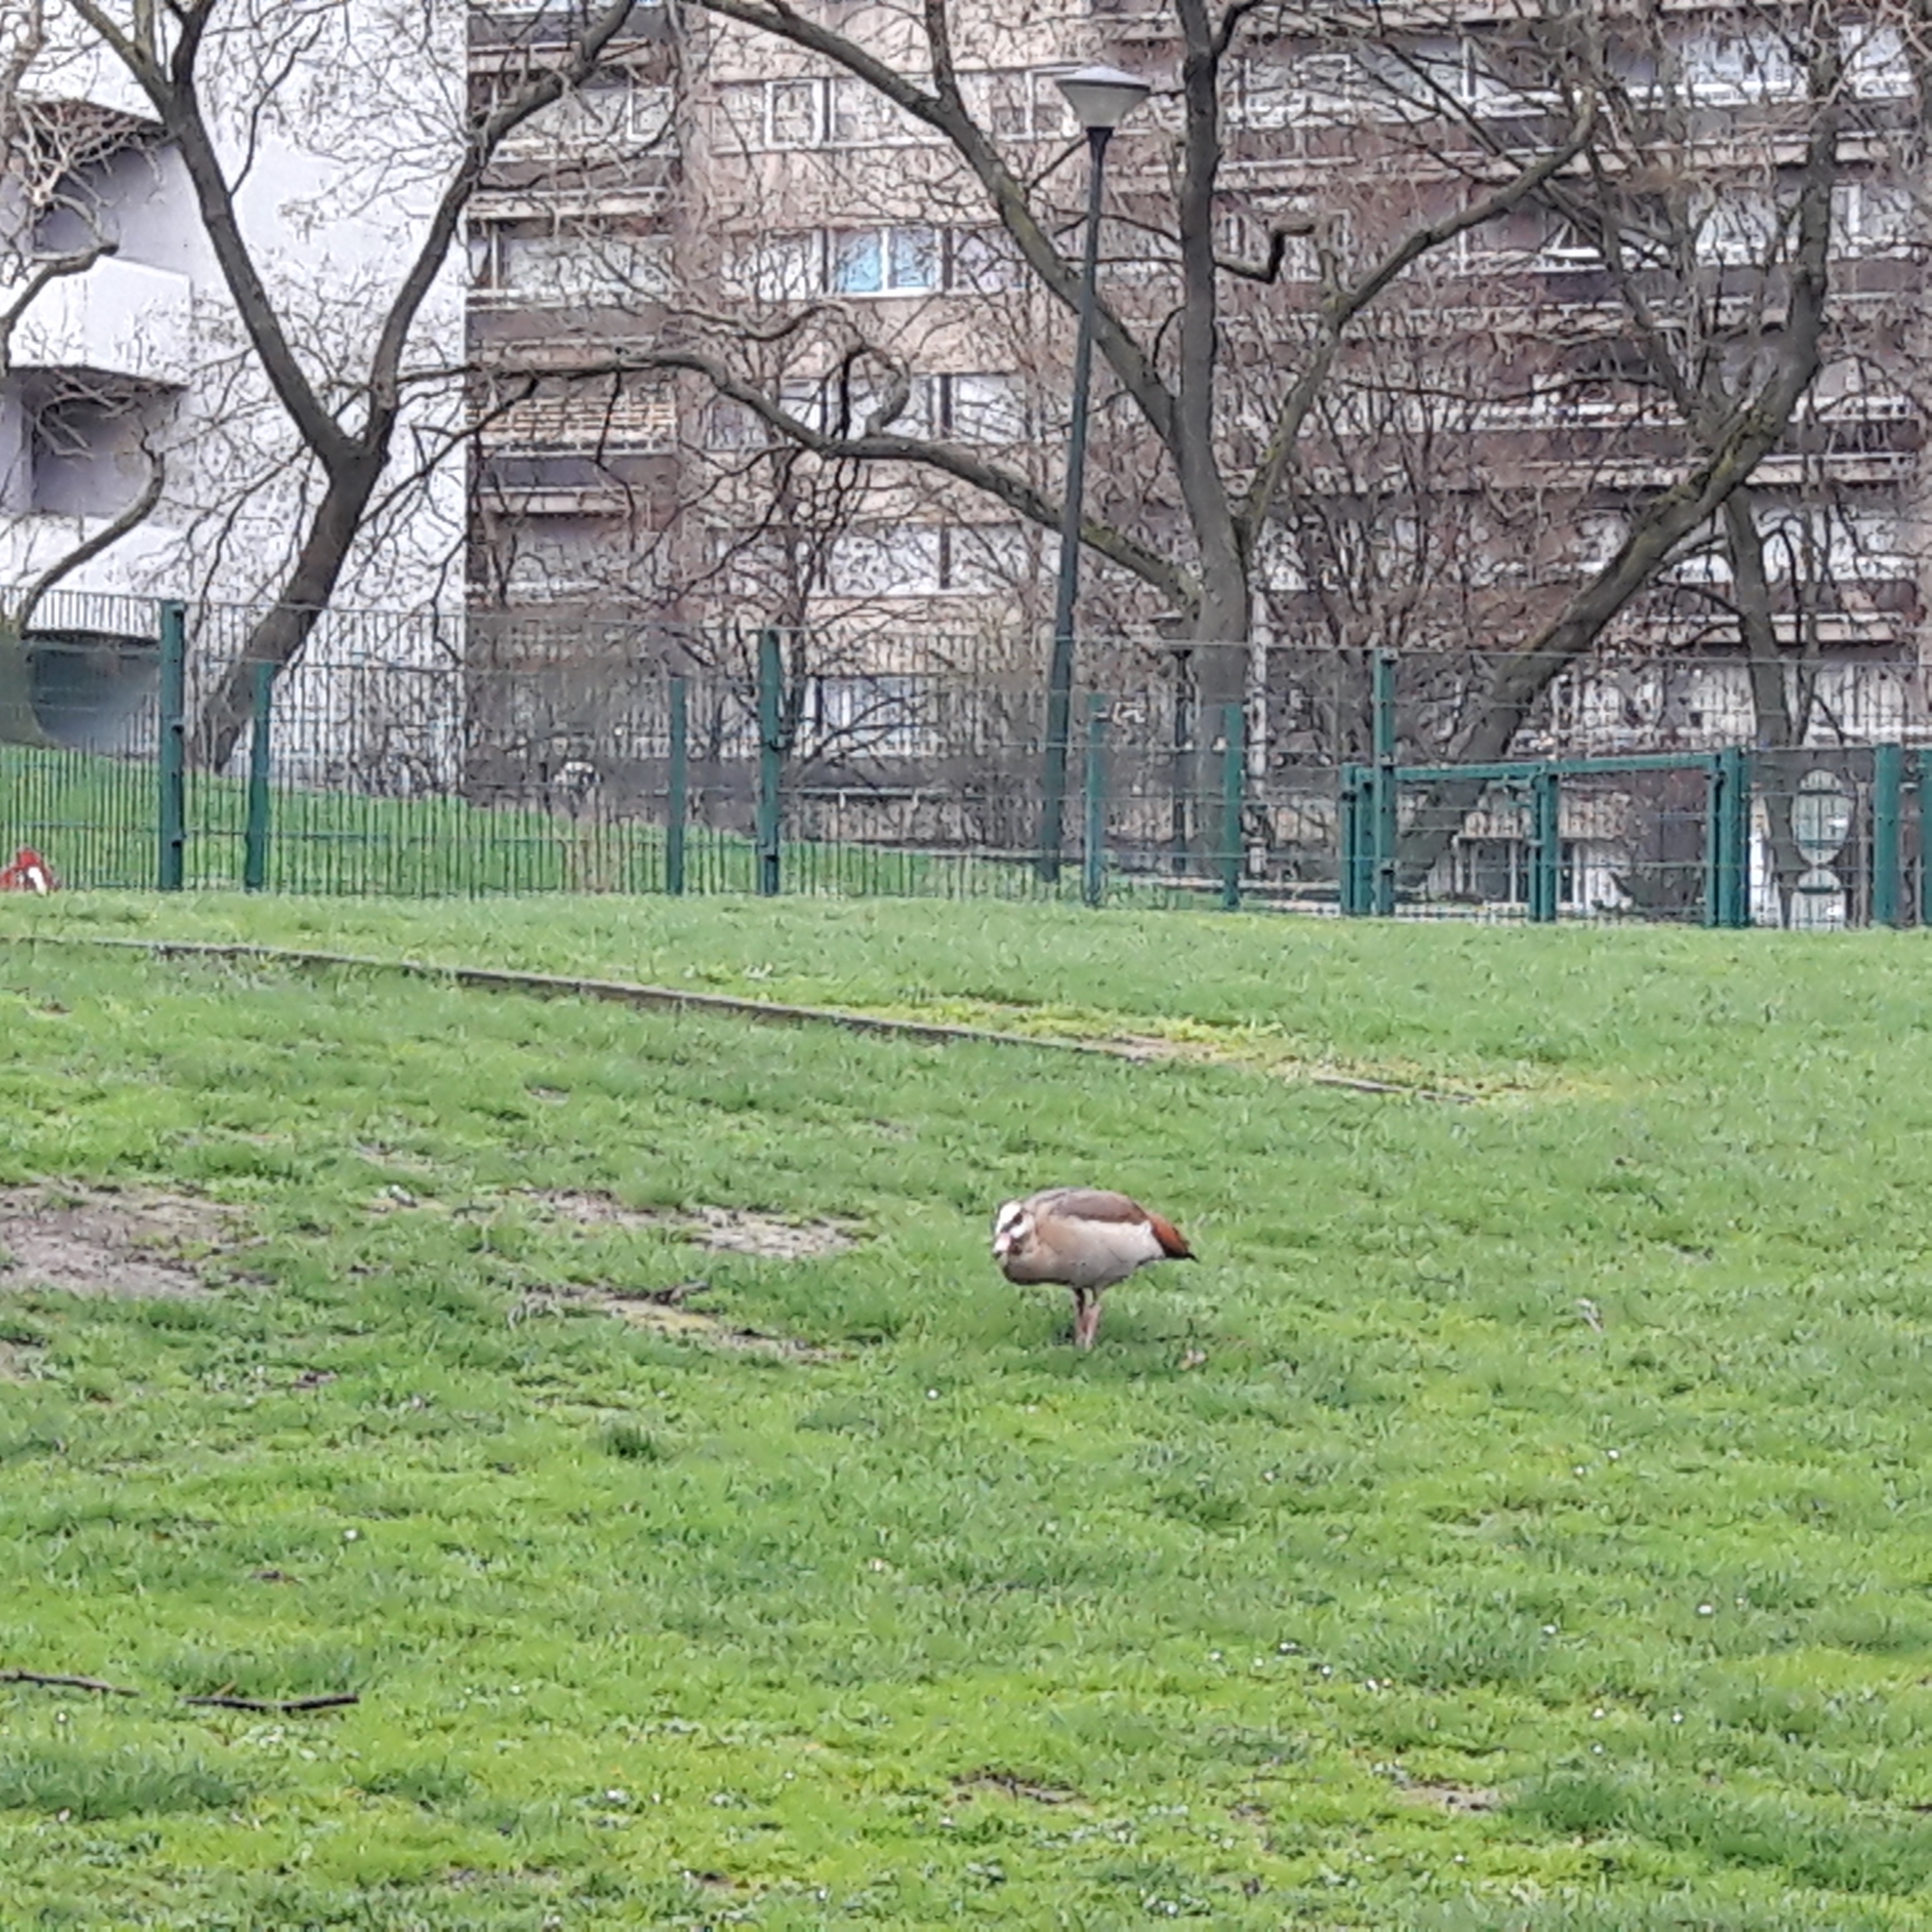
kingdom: Animalia
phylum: Chordata
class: Aves
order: Anseriformes
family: Anatidae
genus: Alopochen
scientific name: Alopochen aegyptiaca
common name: Egyptian goose
